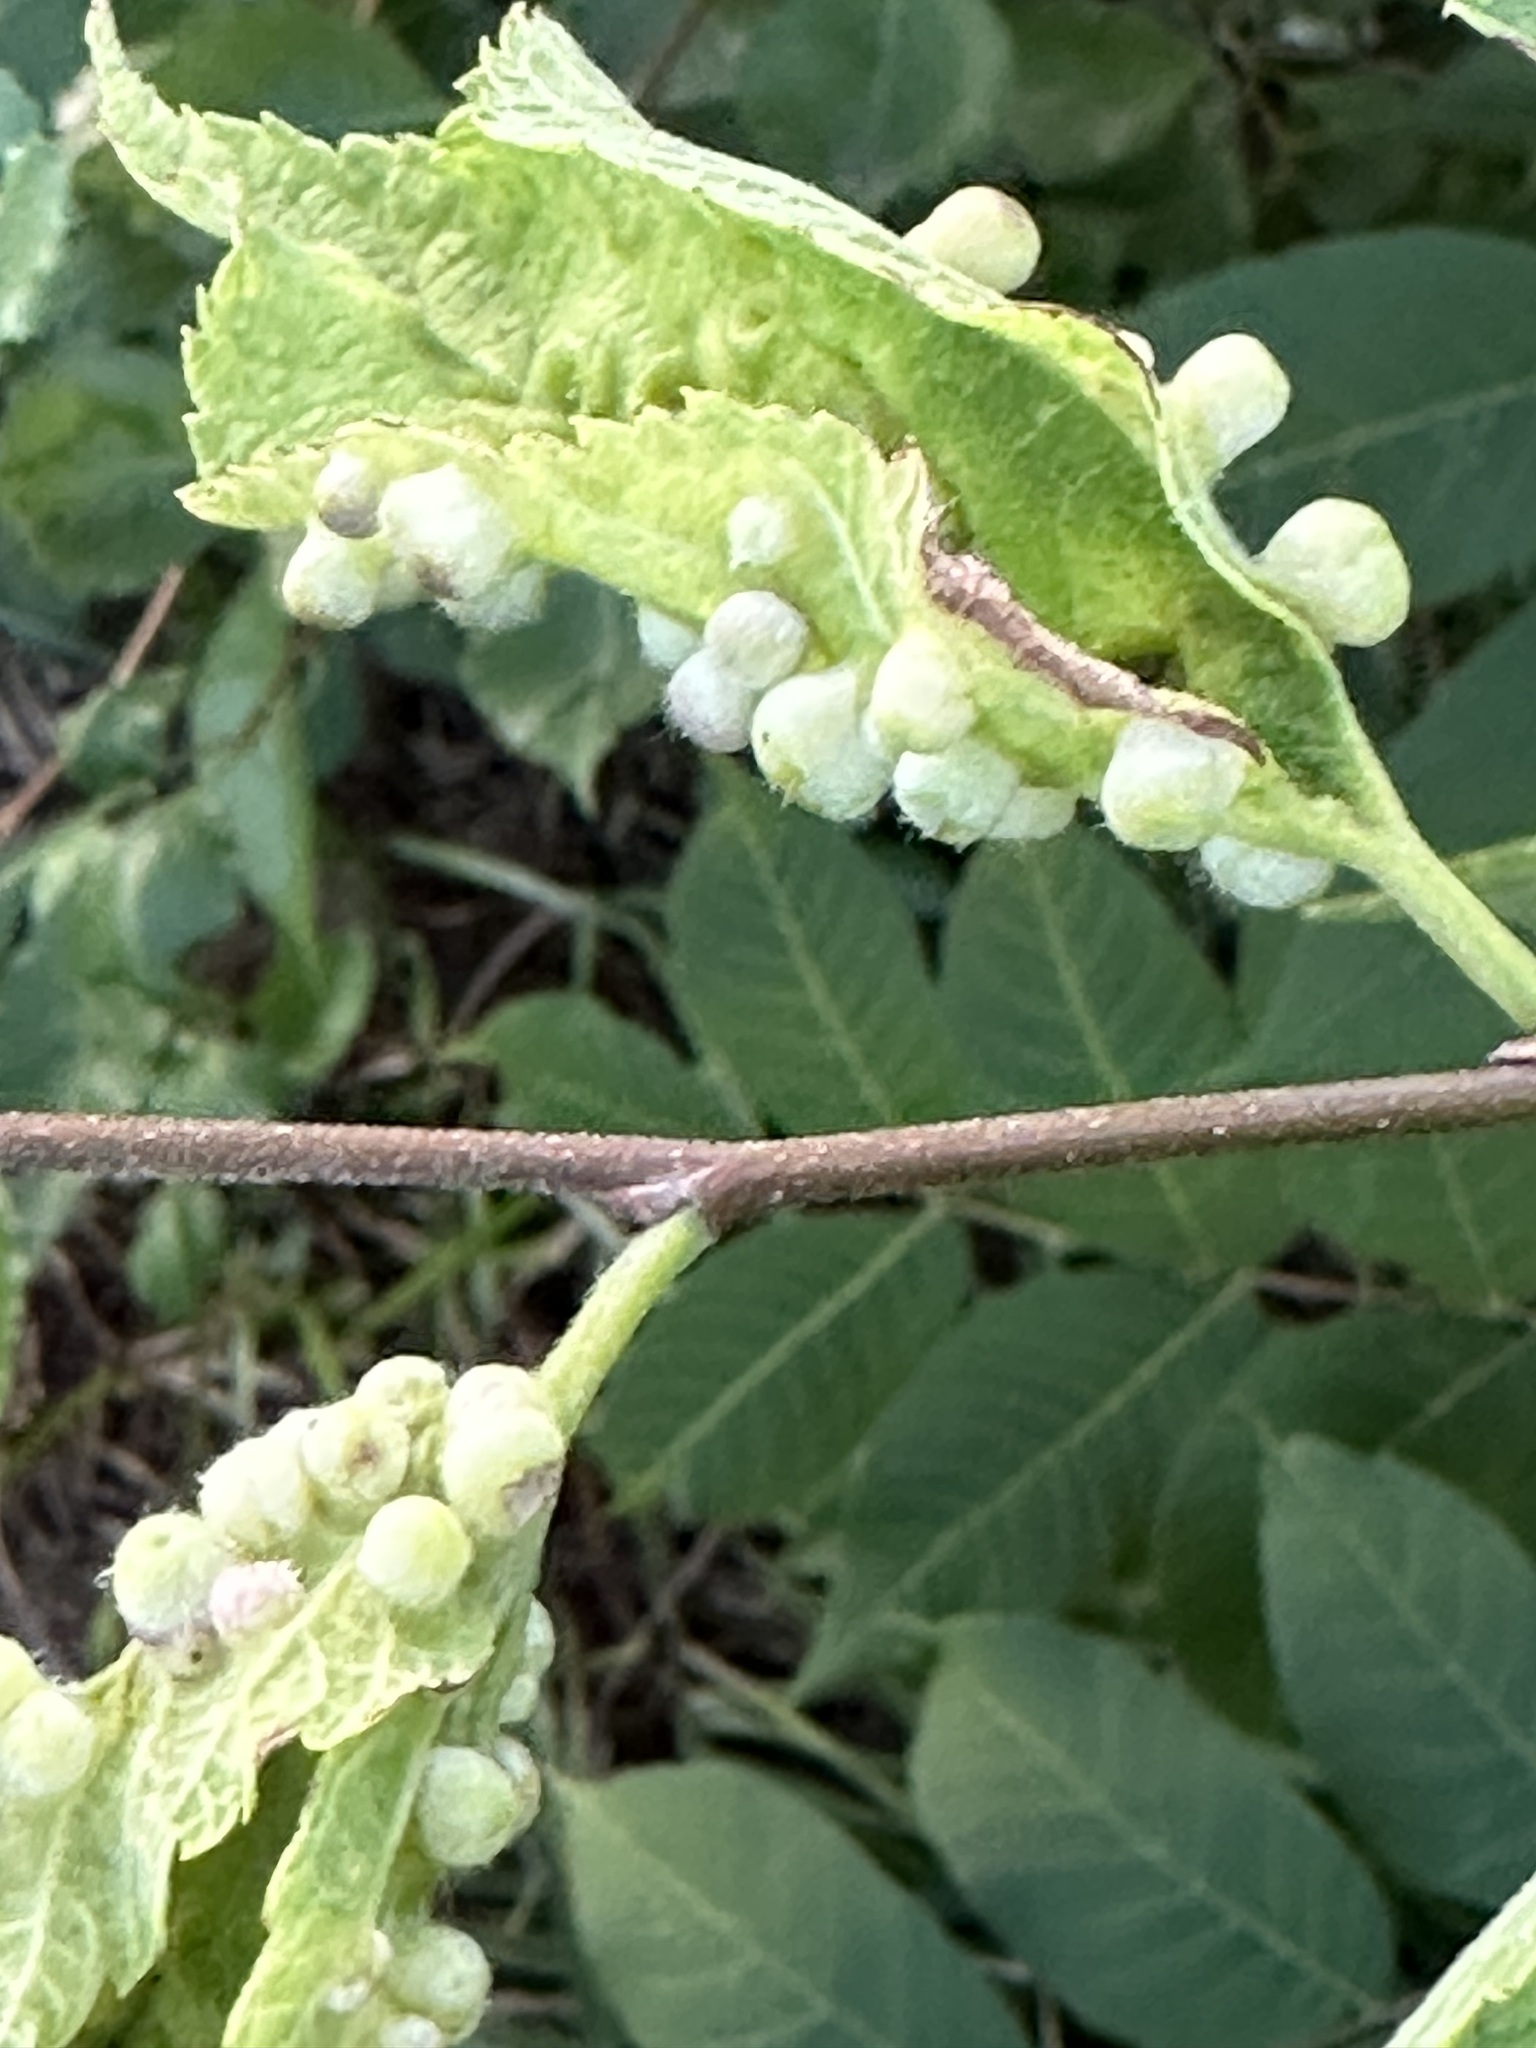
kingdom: Animalia
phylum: Arthropoda
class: Insecta
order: Hemiptera
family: Aphalaridae
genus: Pachypsylla
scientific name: Pachypsylla celtidismamma
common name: Hackberry nipplegall psyllid
